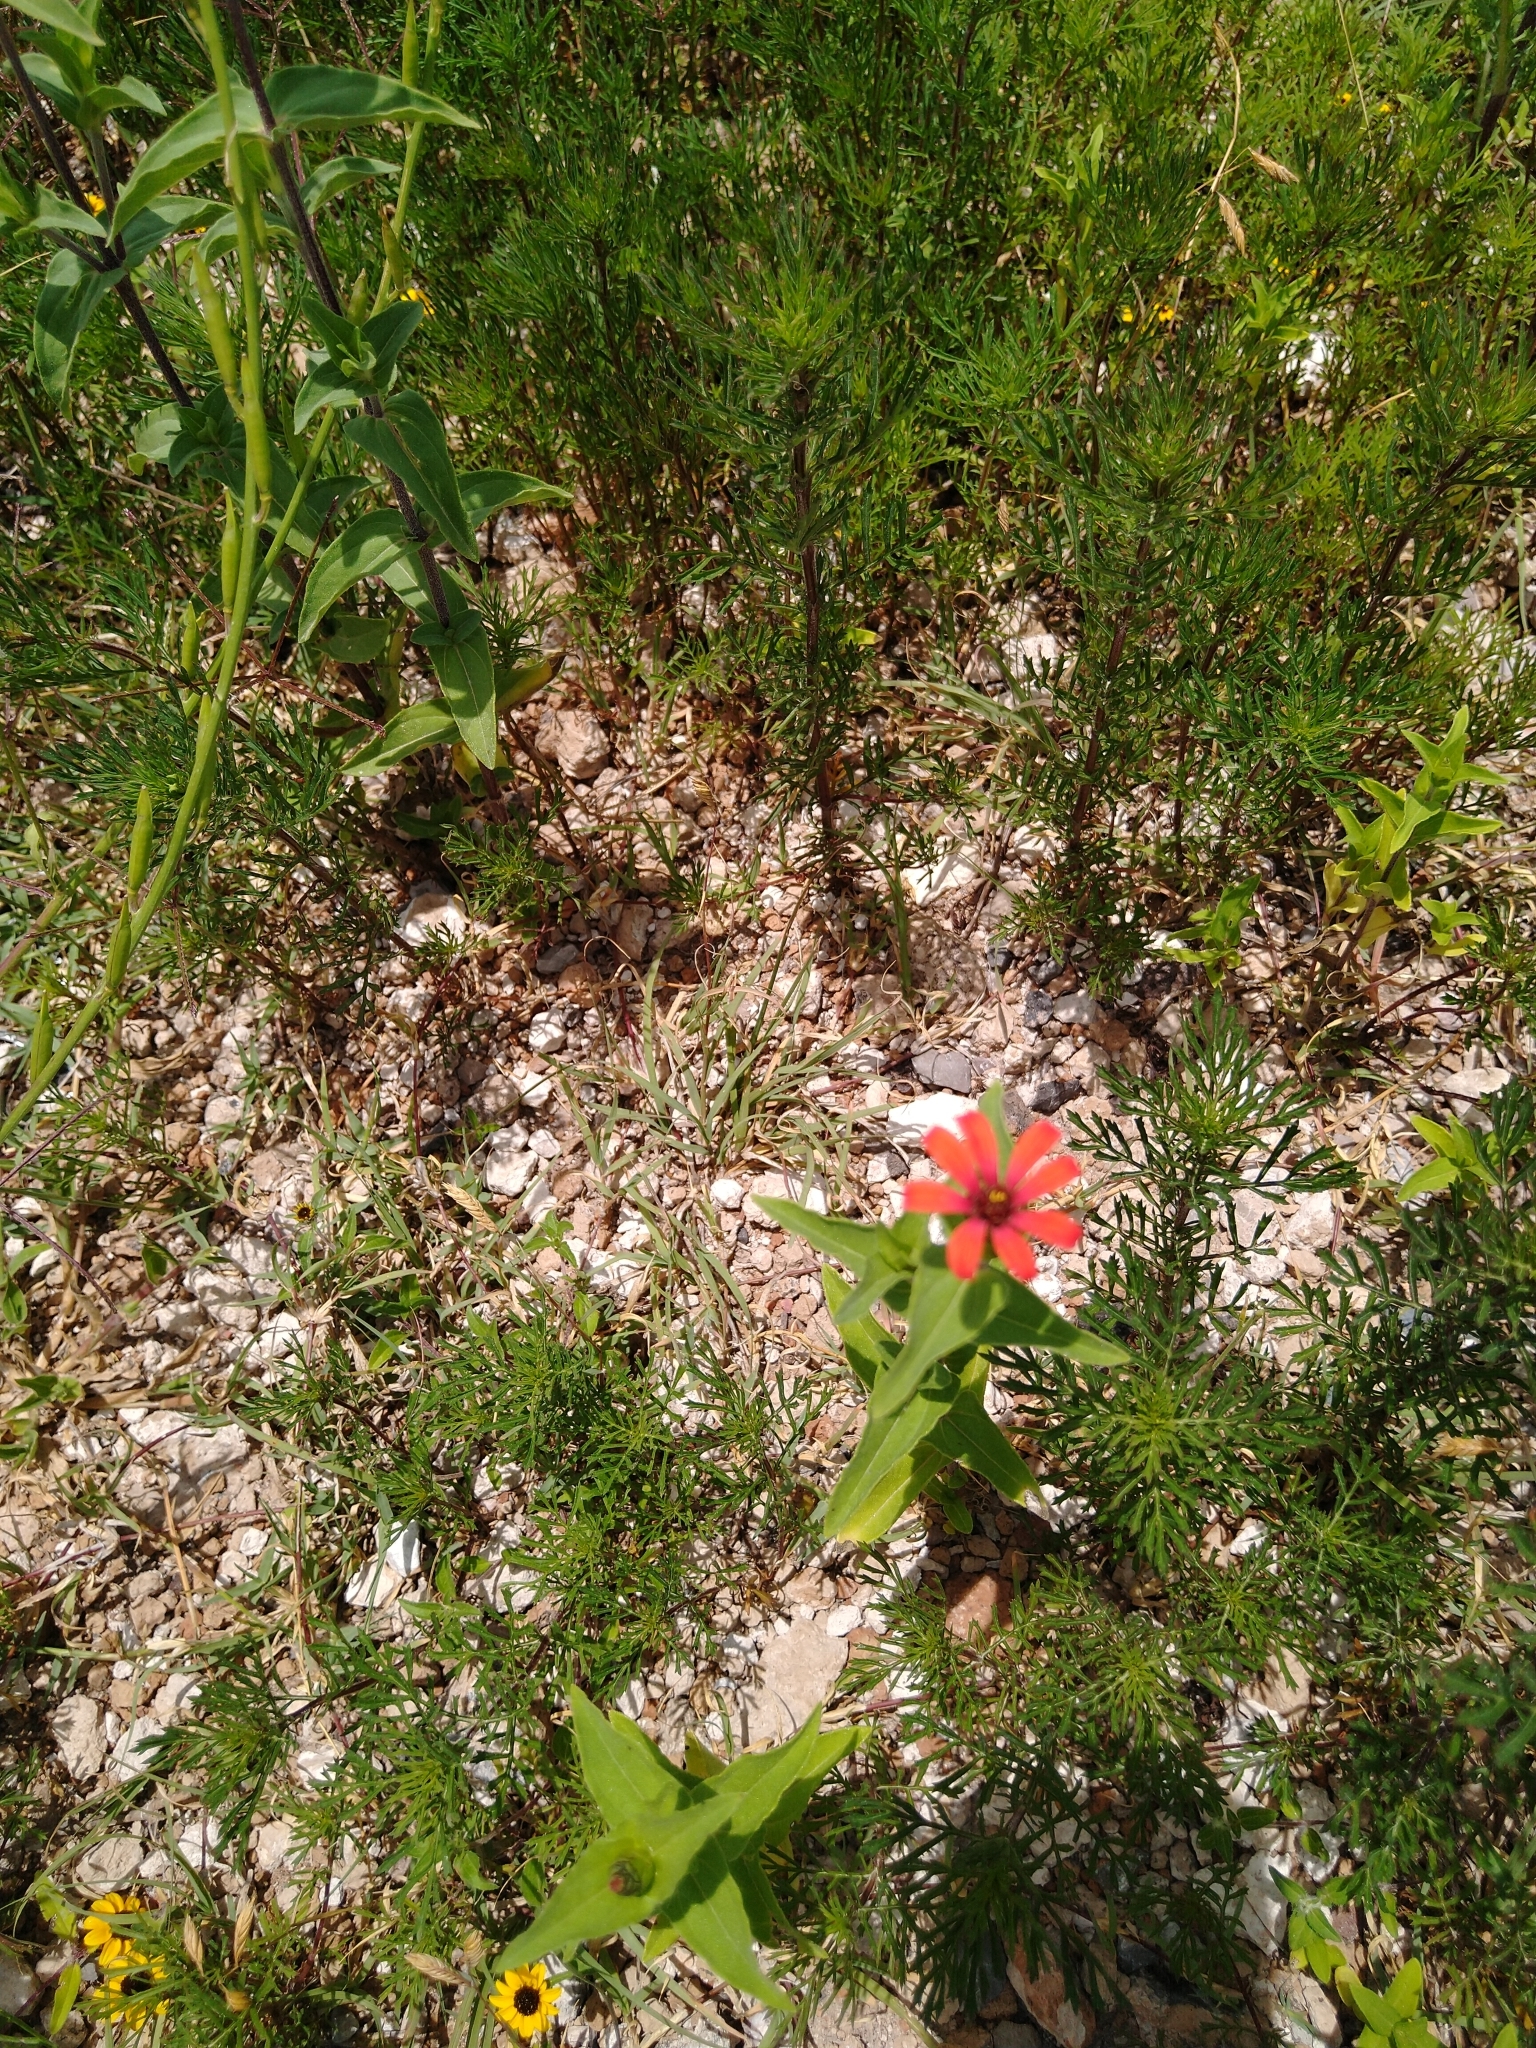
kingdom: Plantae
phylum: Tracheophyta
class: Magnoliopsida
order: Asterales
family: Asteraceae
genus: Zinnia
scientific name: Zinnia peruviana
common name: Peruvian zinnia
